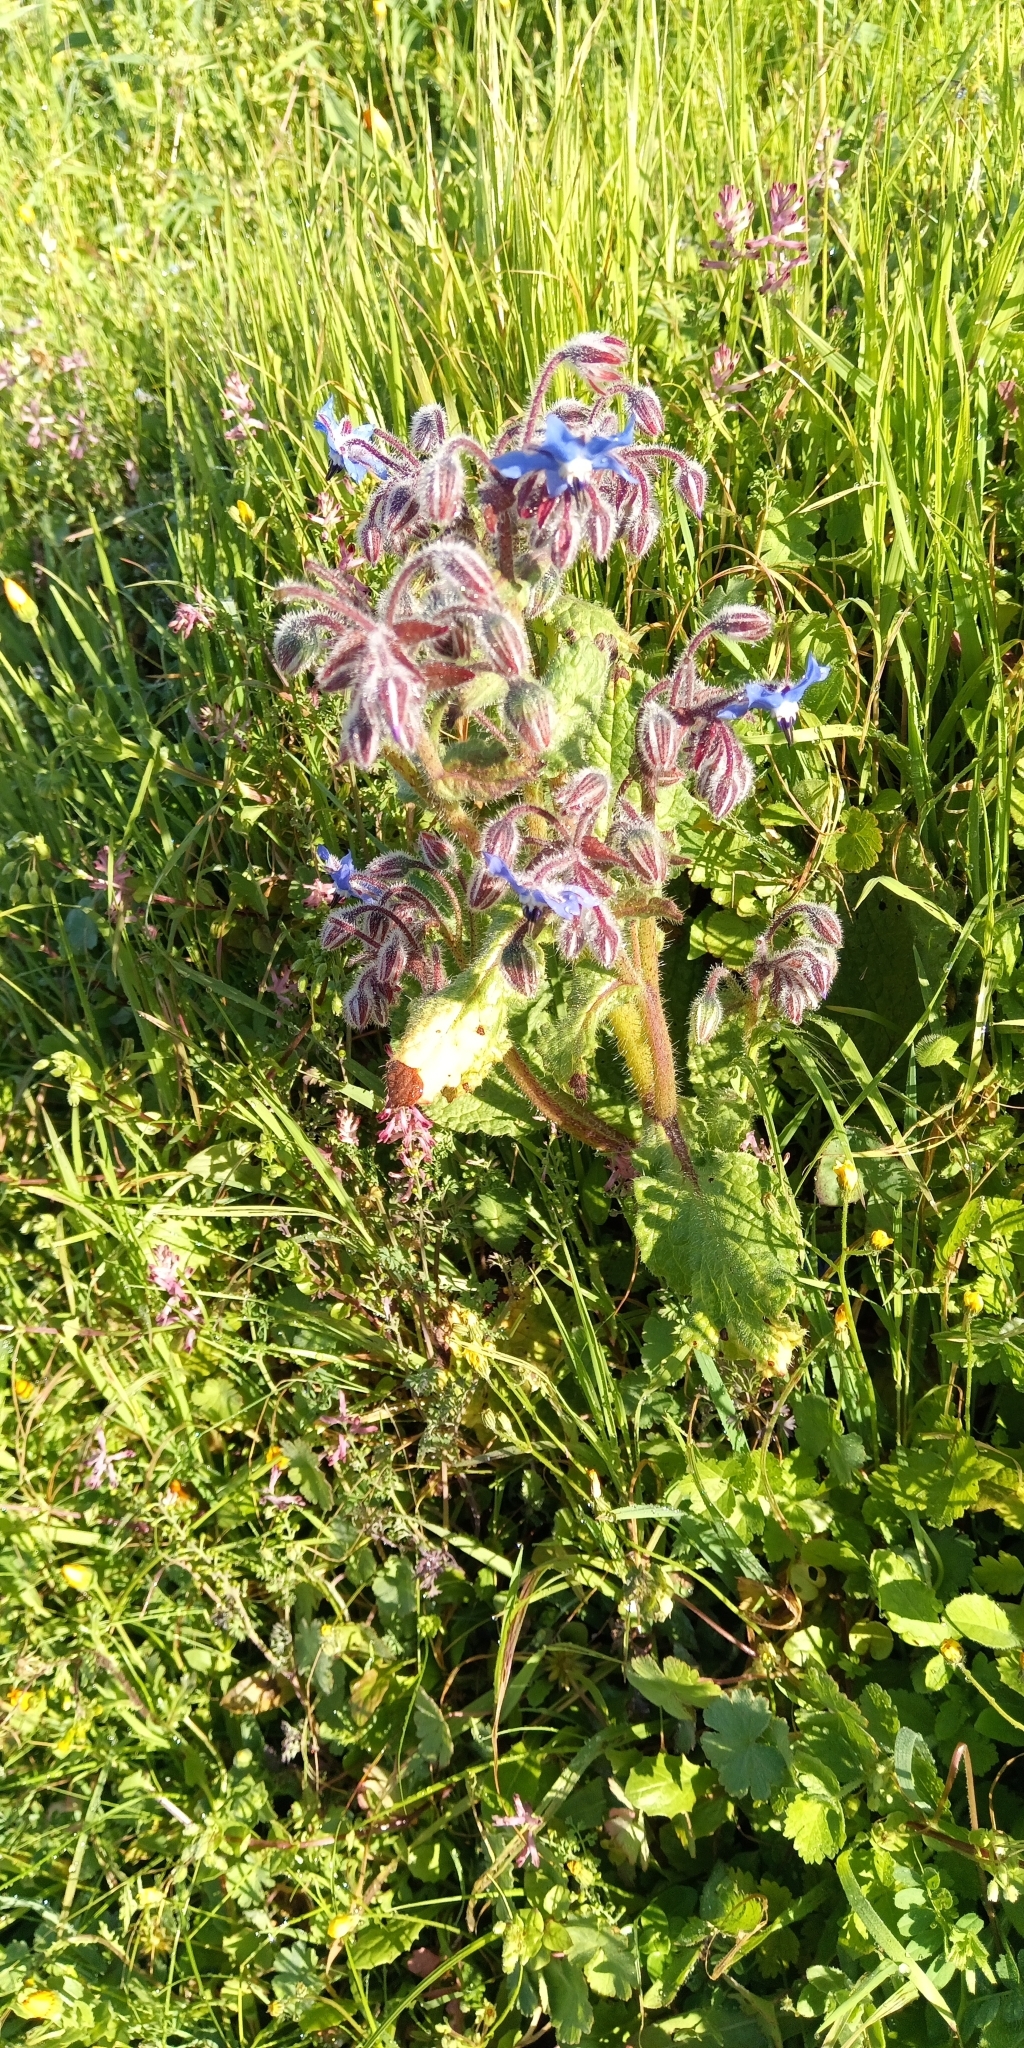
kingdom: Plantae
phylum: Tracheophyta
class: Magnoliopsida
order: Boraginales
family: Boraginaceae
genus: Borago
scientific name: Borago officinalis
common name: Borage
